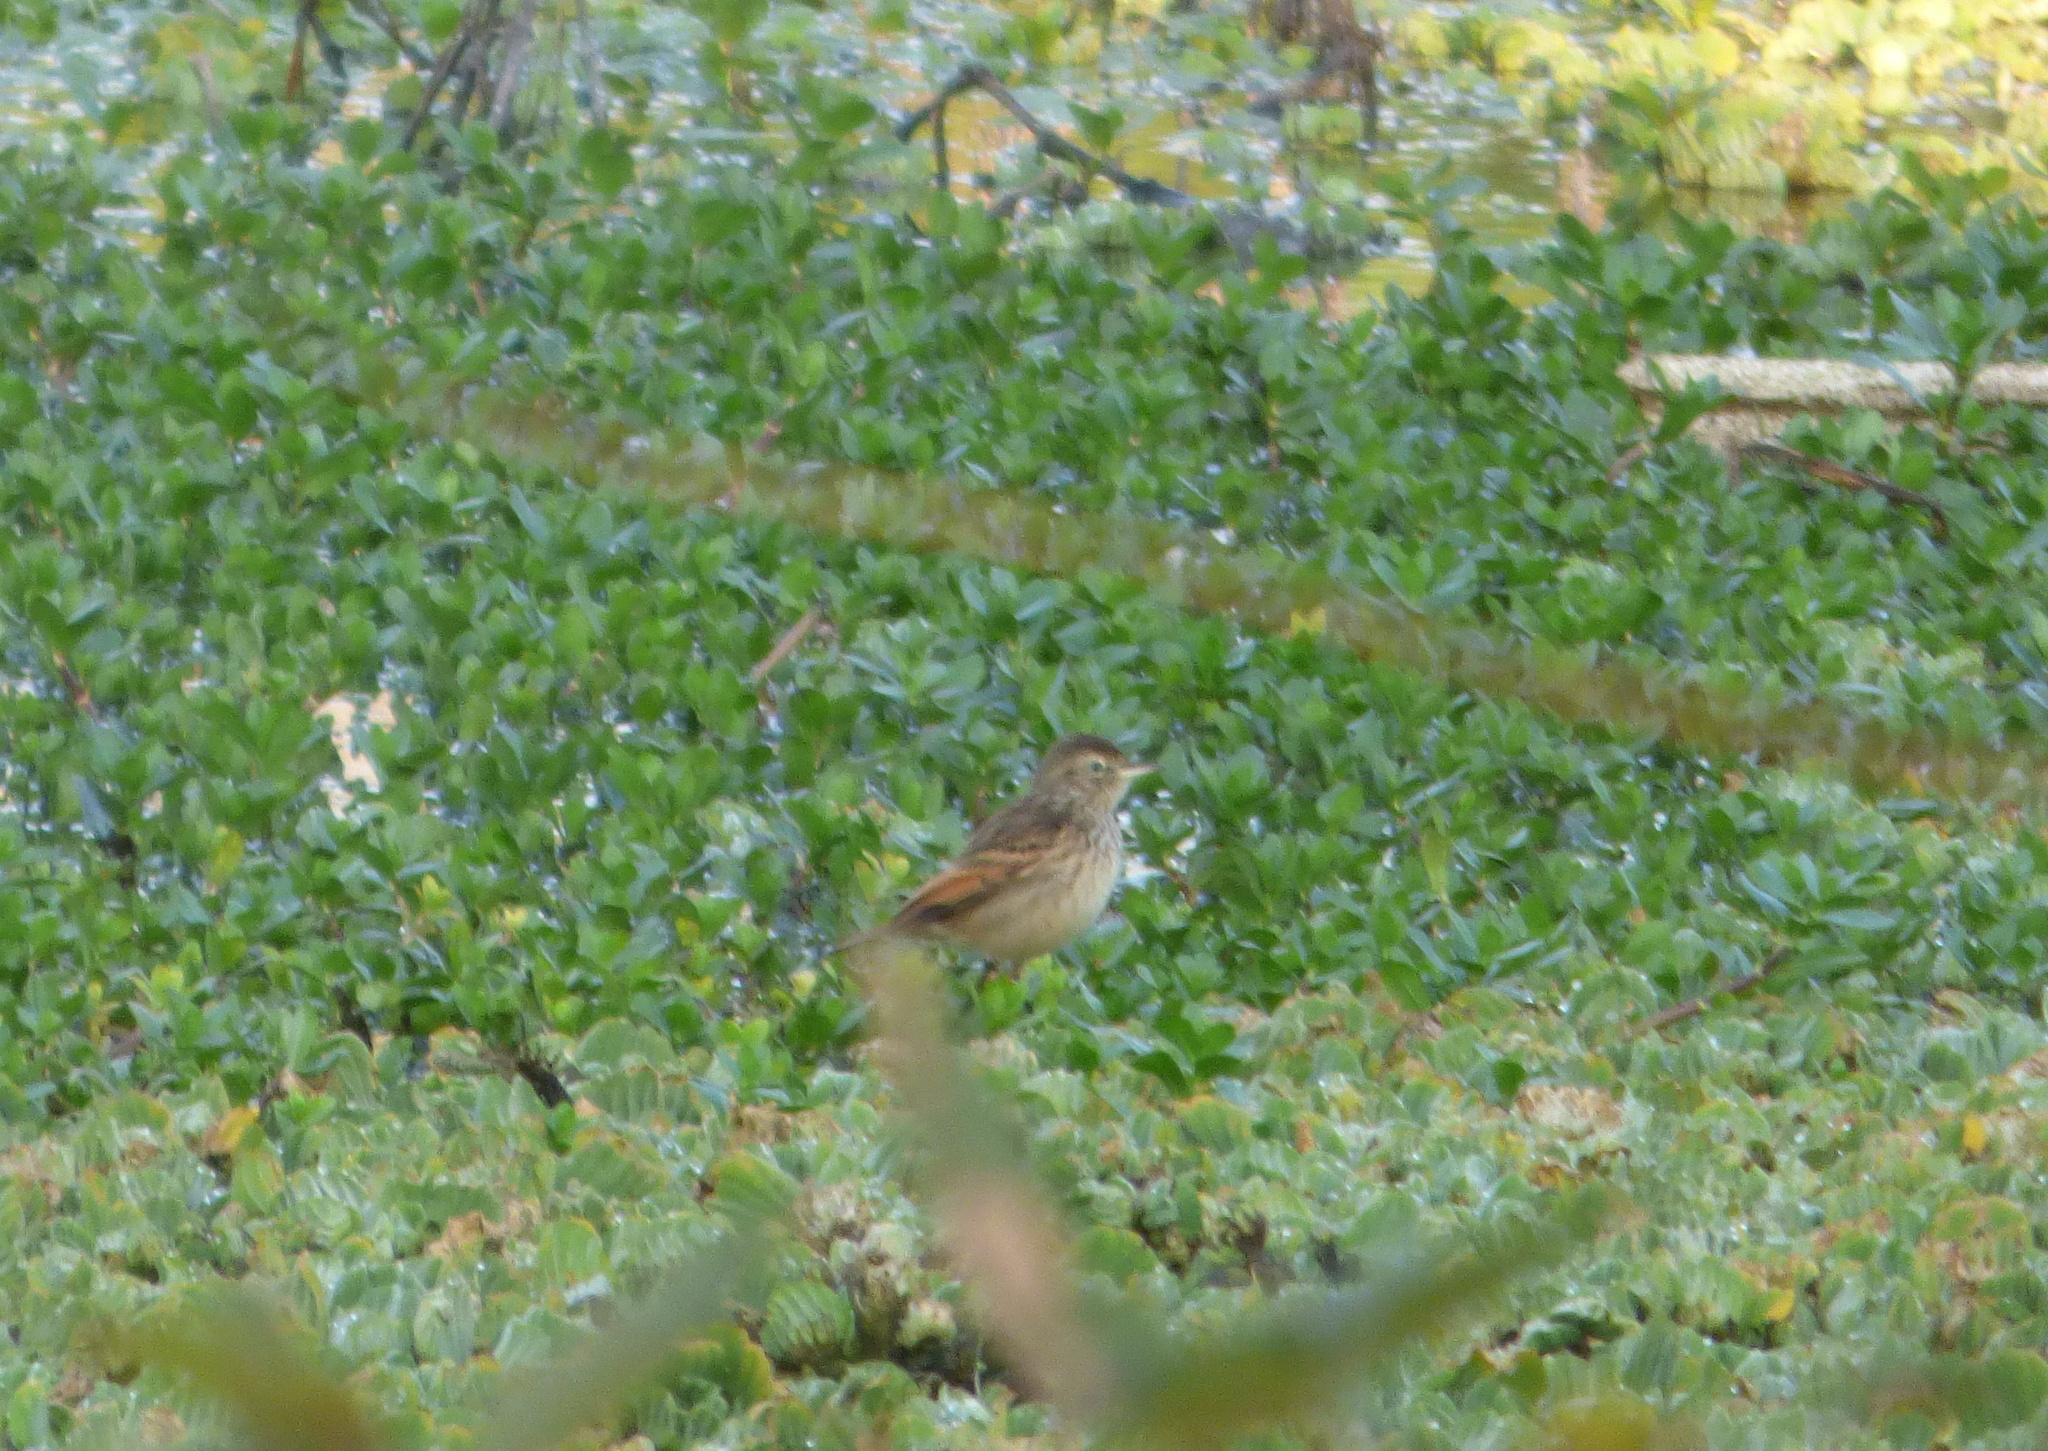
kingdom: Animalia
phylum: Chordata
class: Aves
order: Passeriformes
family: Tyrannidae
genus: Hymenops
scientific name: Hymenops perspicillatus
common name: Spectacled tyrant
